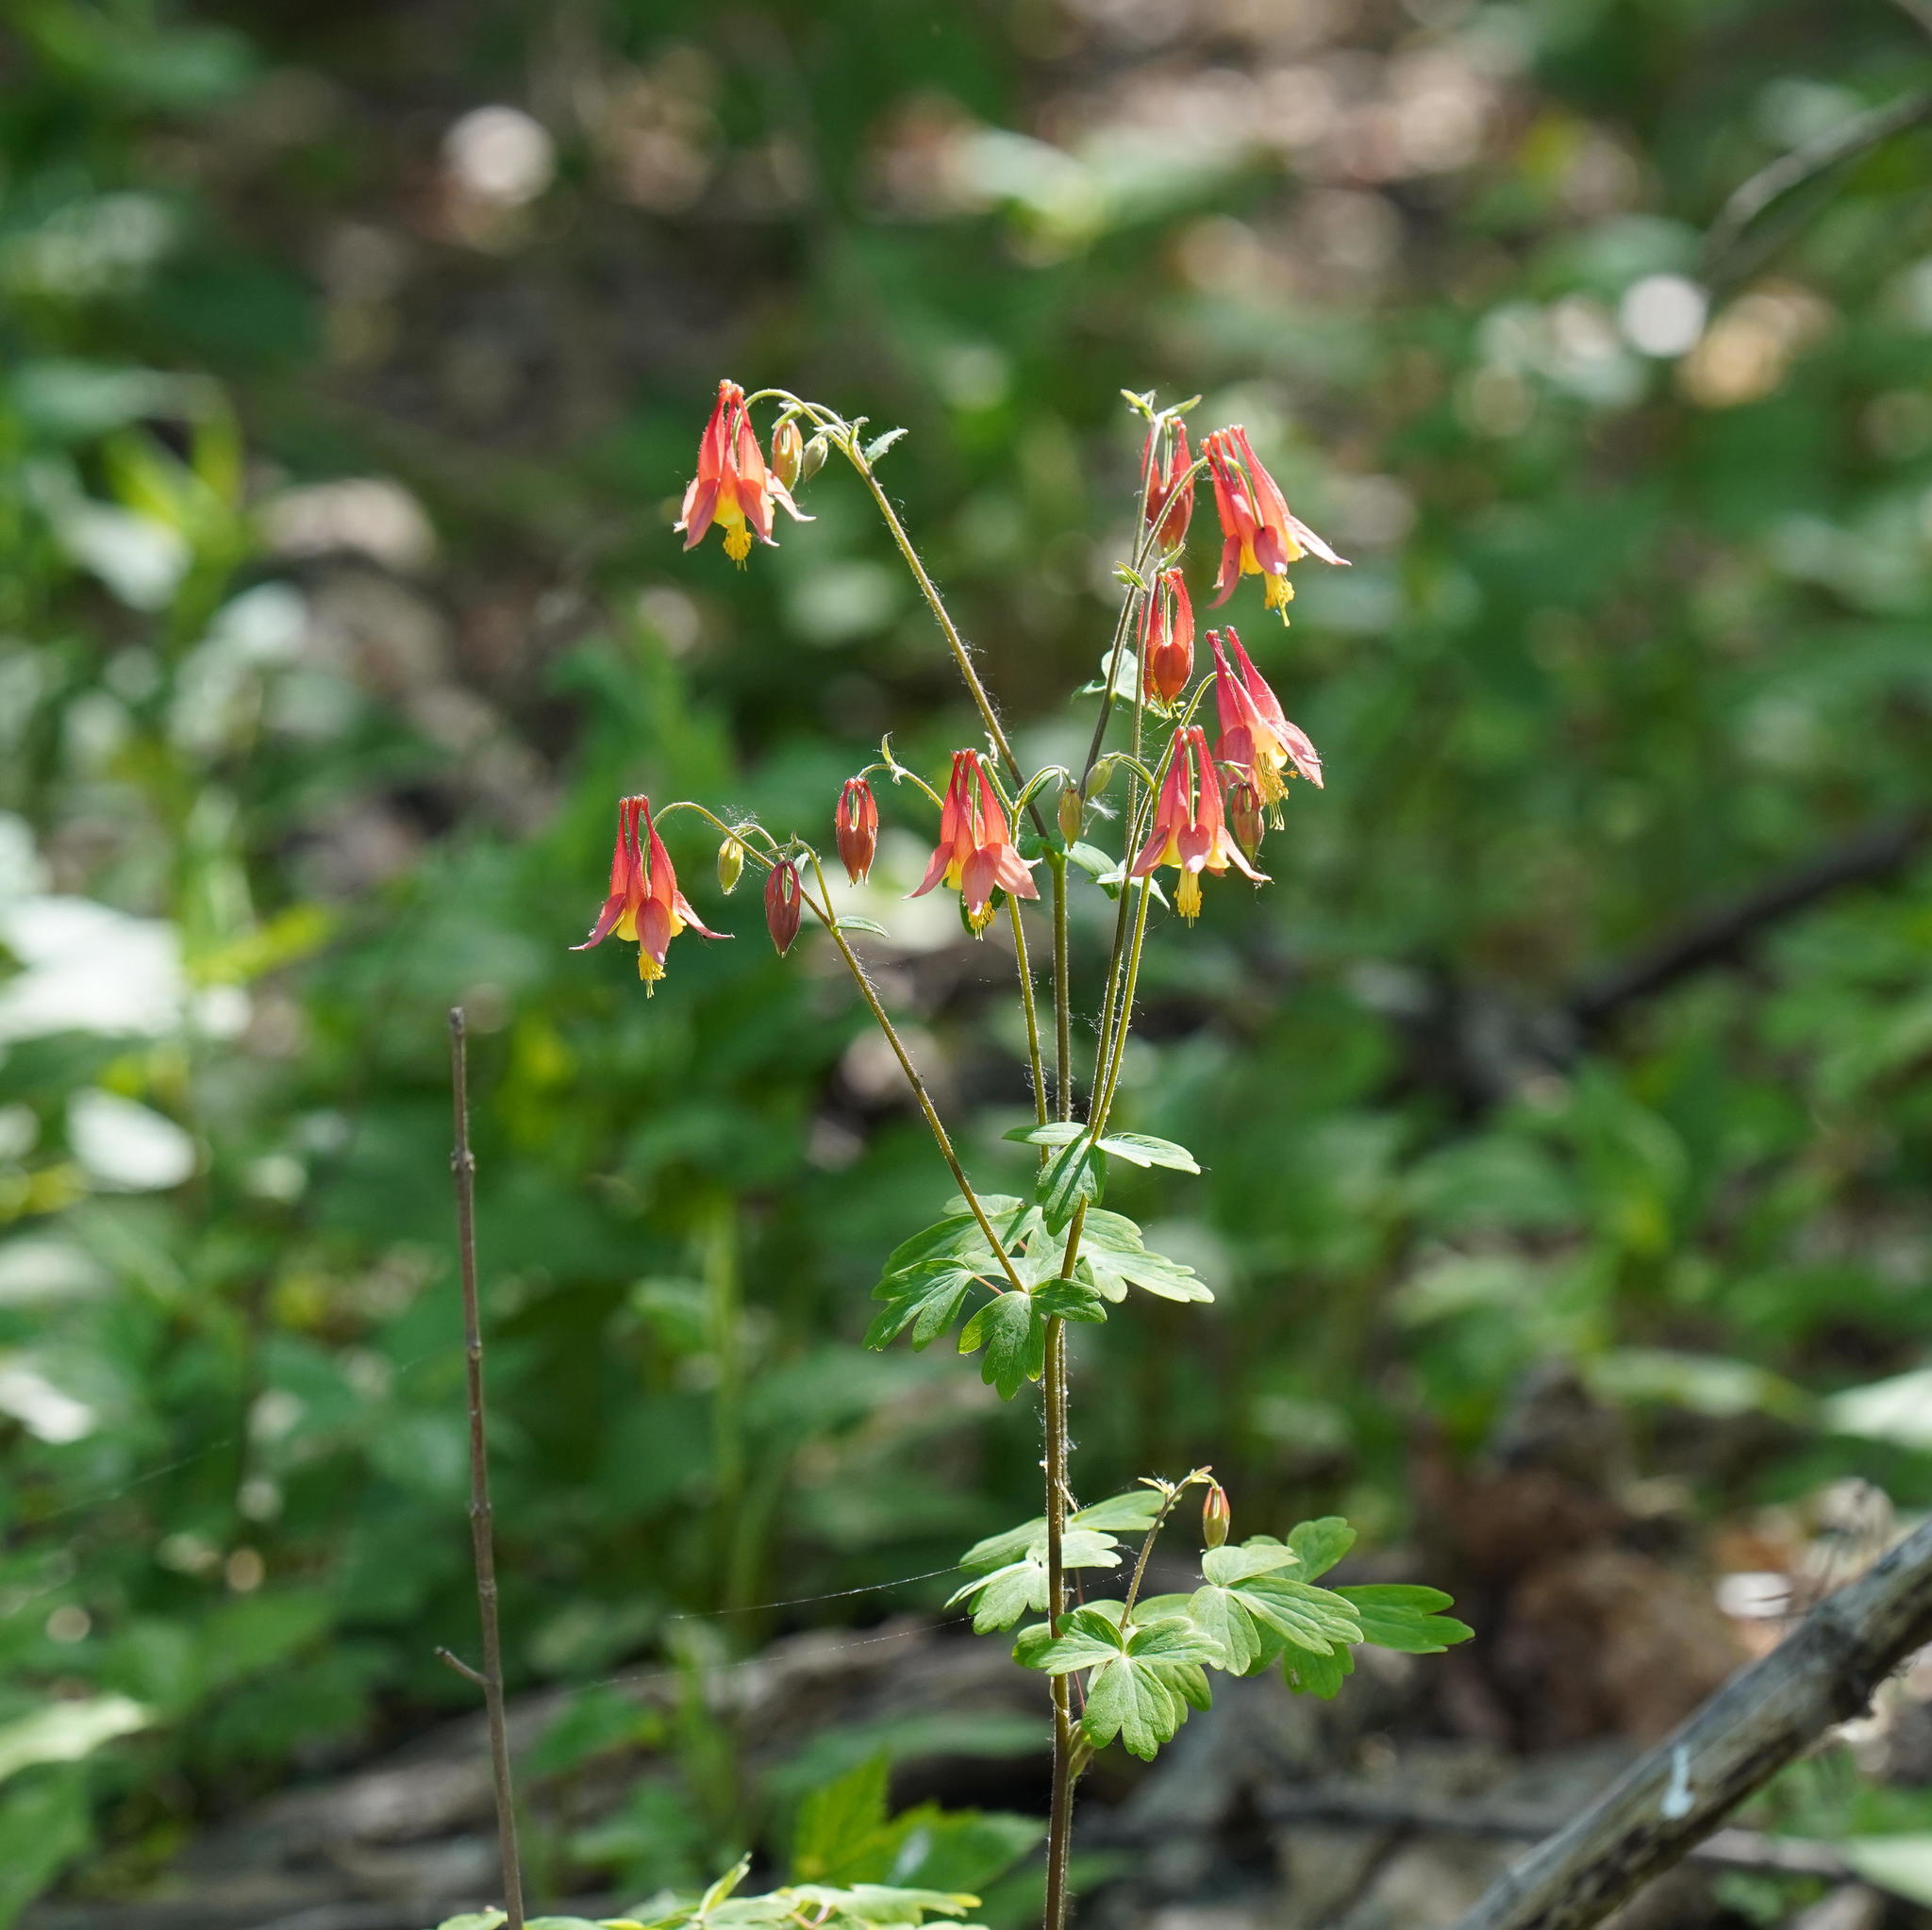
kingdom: Plantae
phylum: Tracheophyta
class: Magnoliopsida
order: Ranunculales
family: Ranunculaceae
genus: Aquilegia
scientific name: Aquilegia canadensis
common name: American columbine
